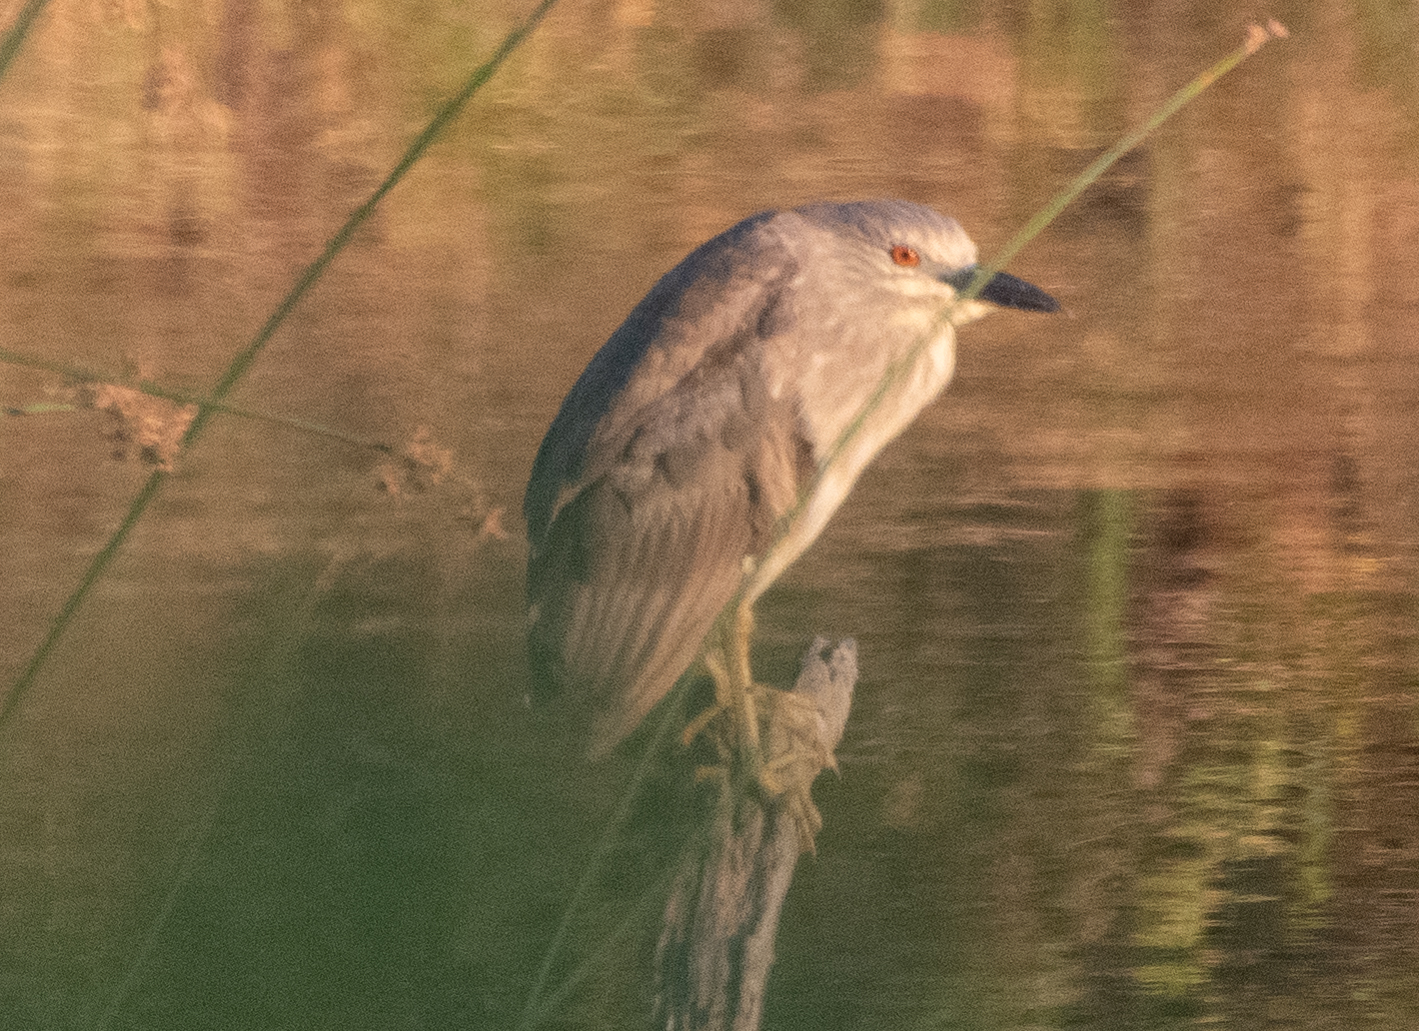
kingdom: Animalia
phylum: Chordata
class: Aves
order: Pelecaniformes
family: Ardeidae
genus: Nycticorax
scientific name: Nycticorax nycticorax
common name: Black-crowned night heron
